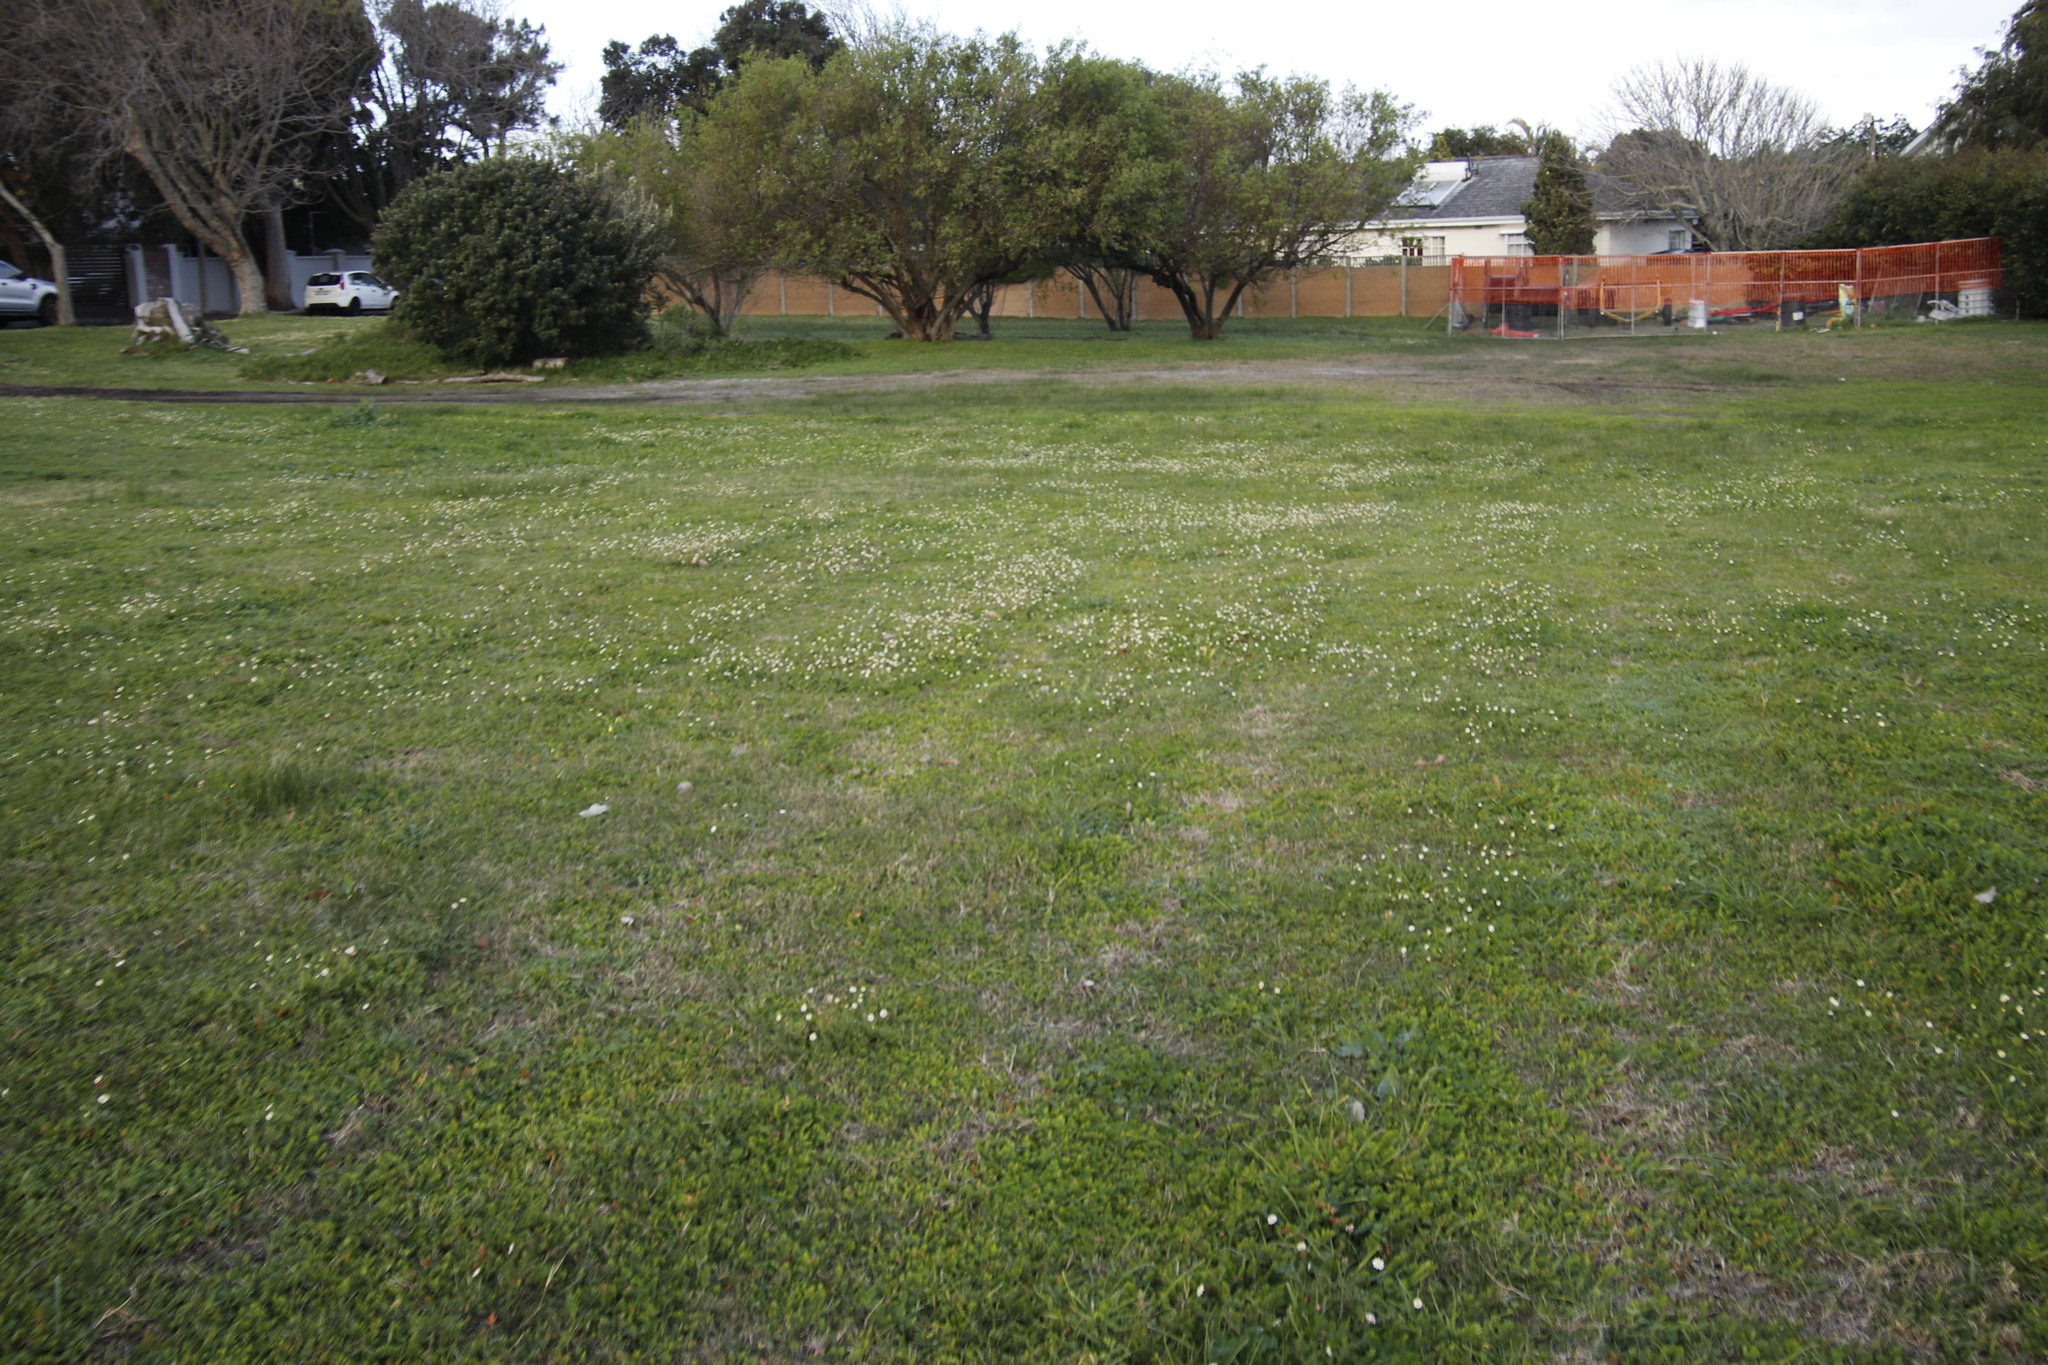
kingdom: Plantae
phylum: Tracheophyta
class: Magnoliopsida
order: Asterales
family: Asteraceae
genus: Cotula
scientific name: Cotula turbinata
